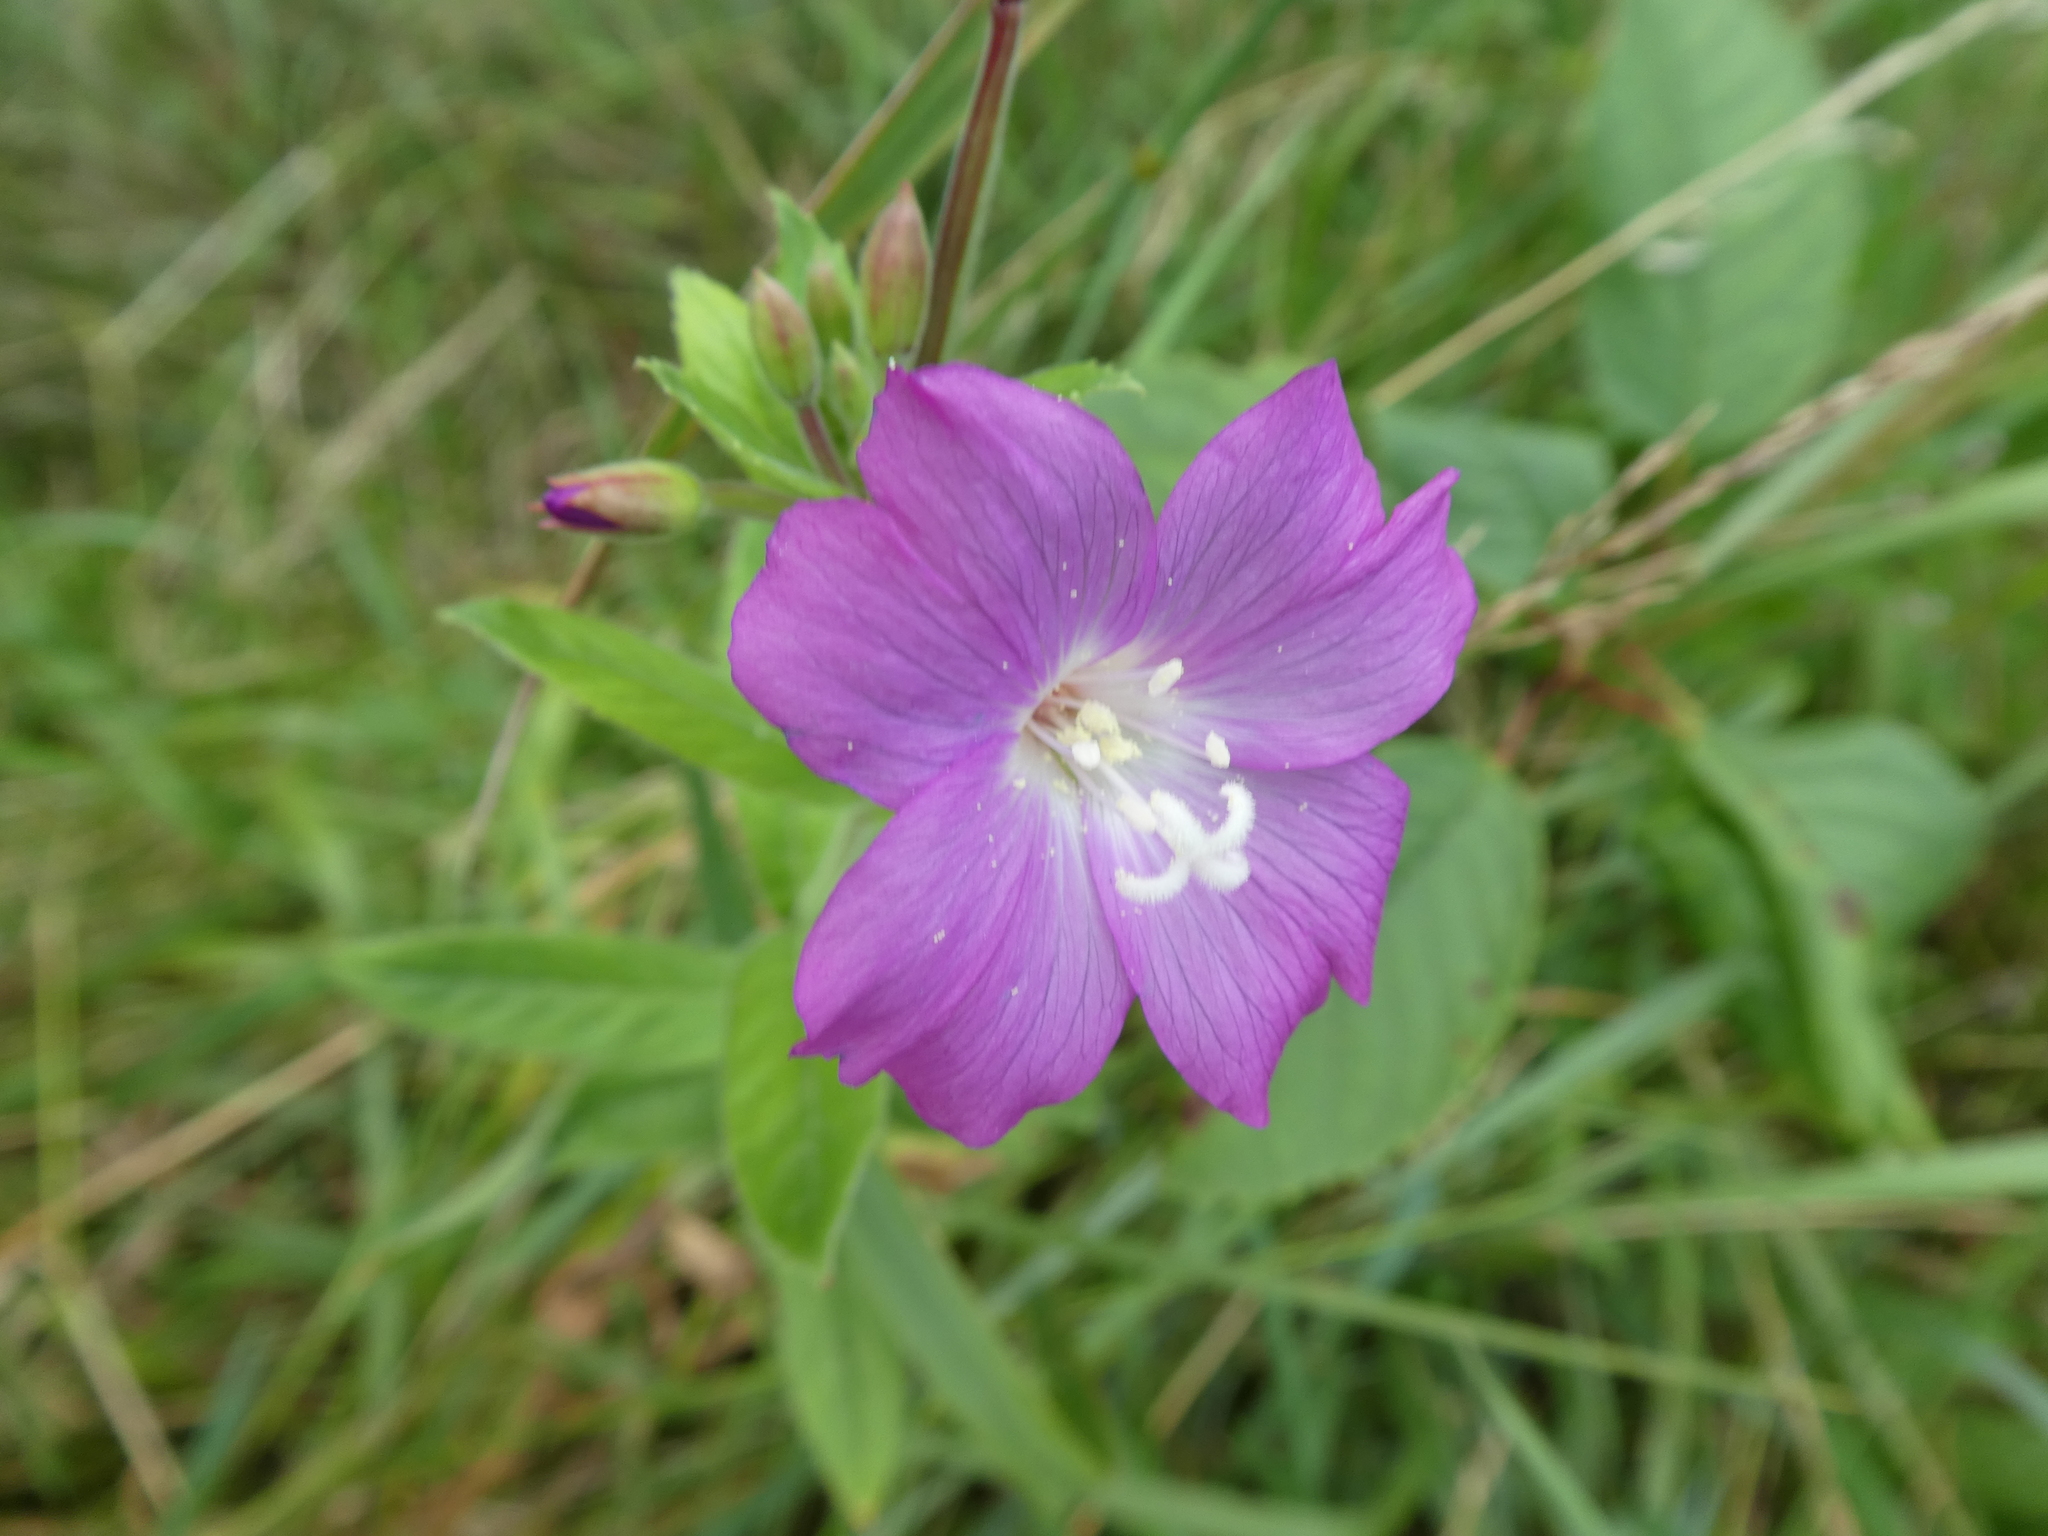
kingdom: Plantae
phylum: Tracheophyta
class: Magnoliopsida
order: Myrtales
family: Onagraceae
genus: Epilobium
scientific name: Epilobium hirsutum
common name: Great willowherb
